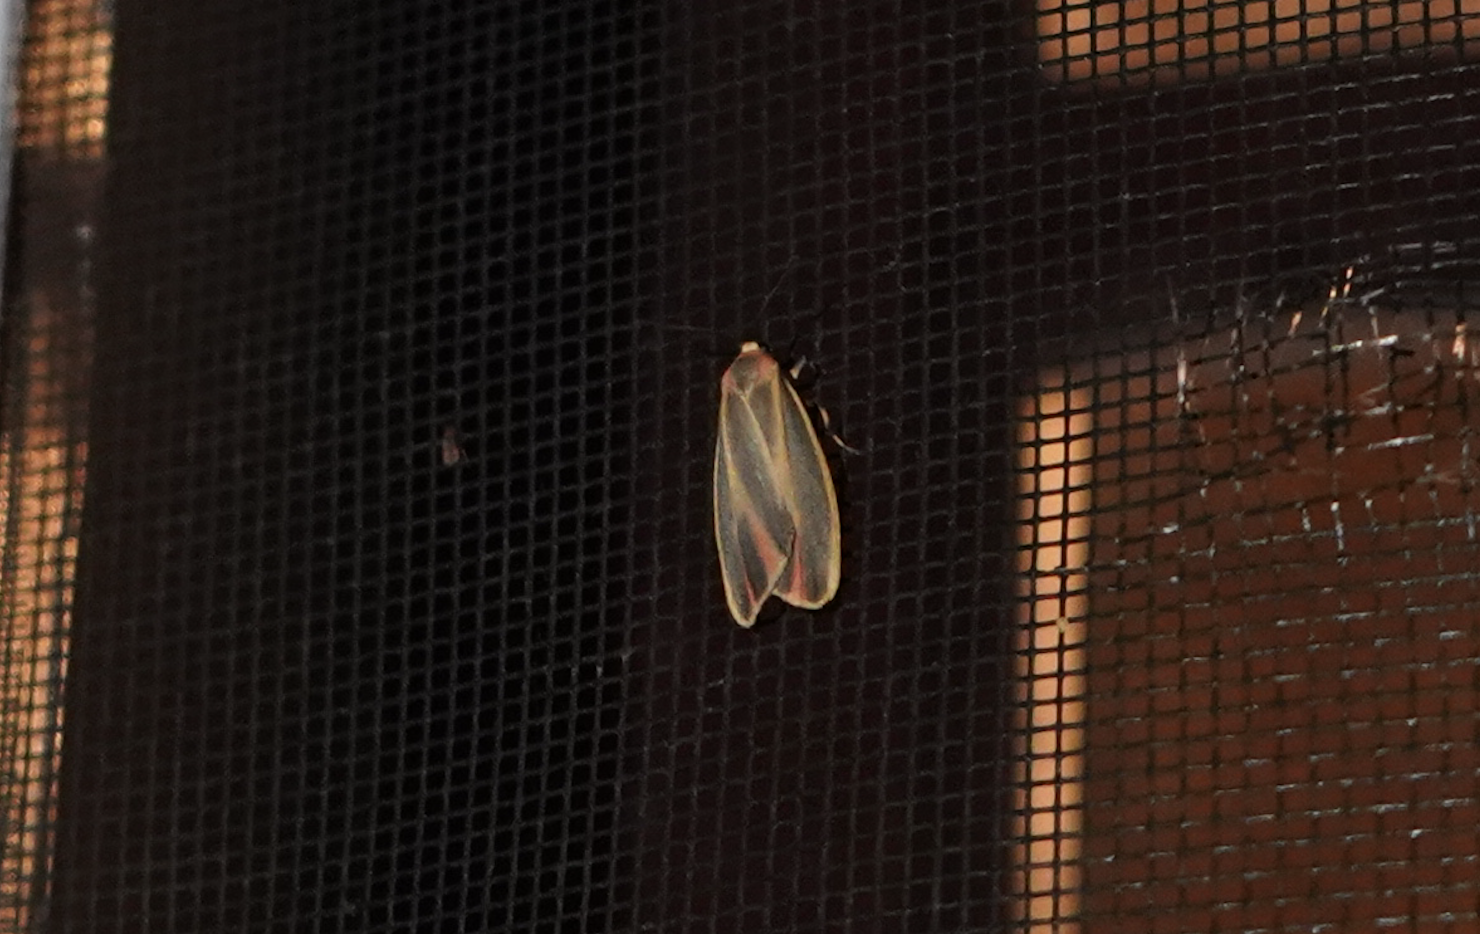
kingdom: Animalia
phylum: Arthropoda
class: Insecta
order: Lepidoptera
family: Erebidae
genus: Hypoprepia
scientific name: Hypoprepia fucosa
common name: Painted lichen moth
